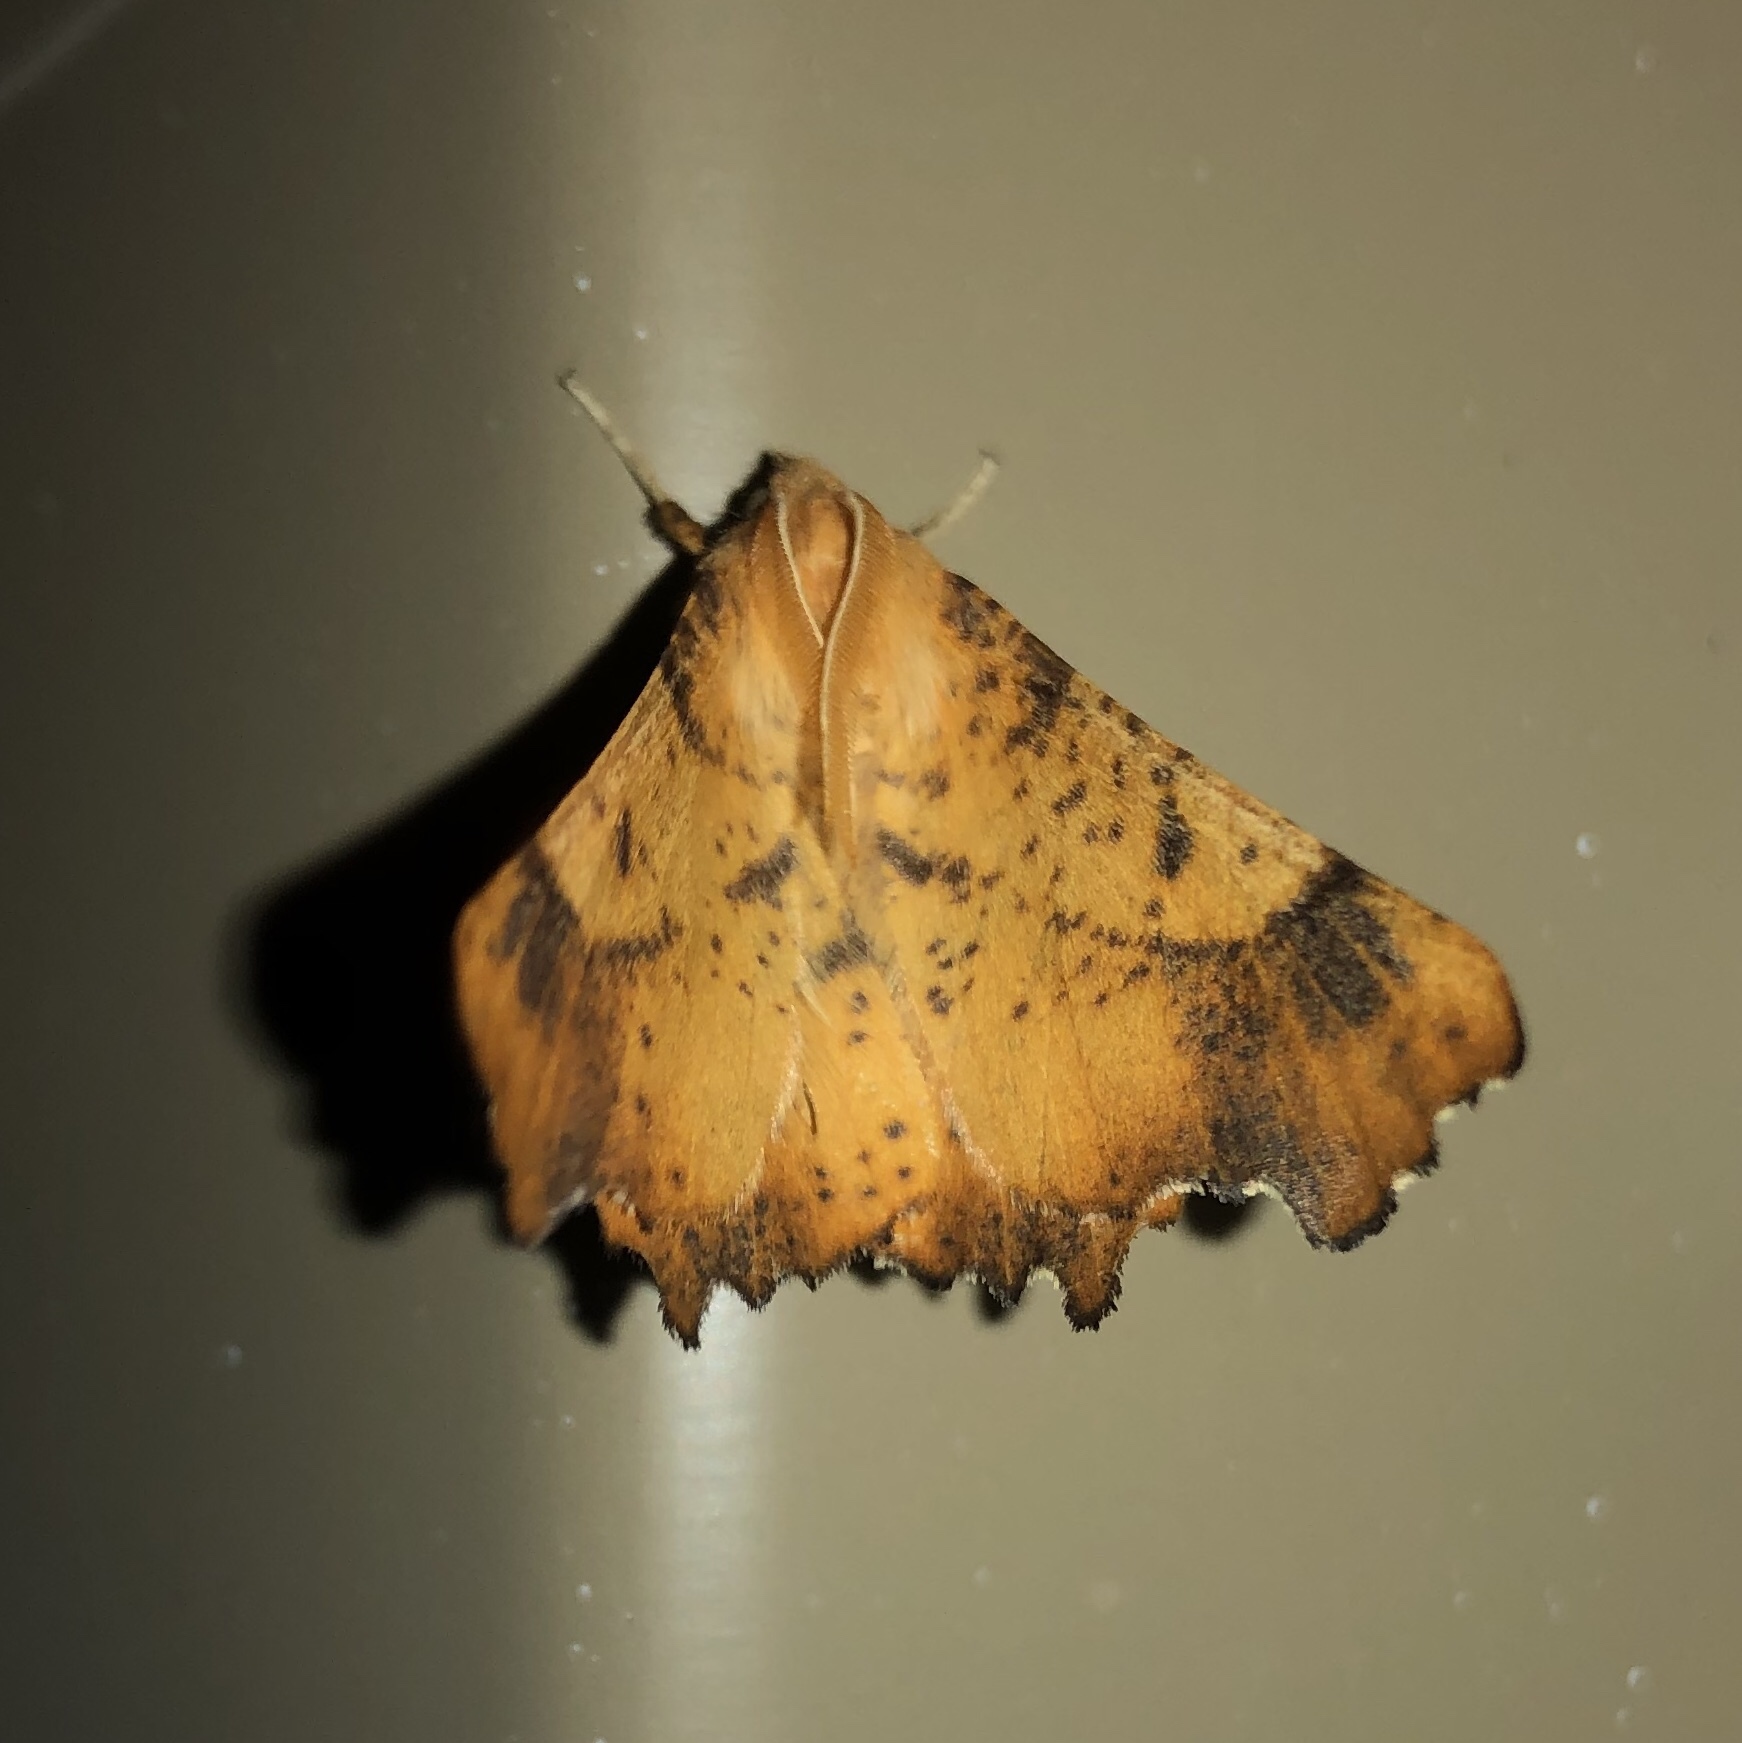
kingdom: Animalia
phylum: Arthropoda
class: Insecta
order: Lepidoptera
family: Geometridae
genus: Ennomos
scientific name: Ennomos magnaria
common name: Maple spanworm
